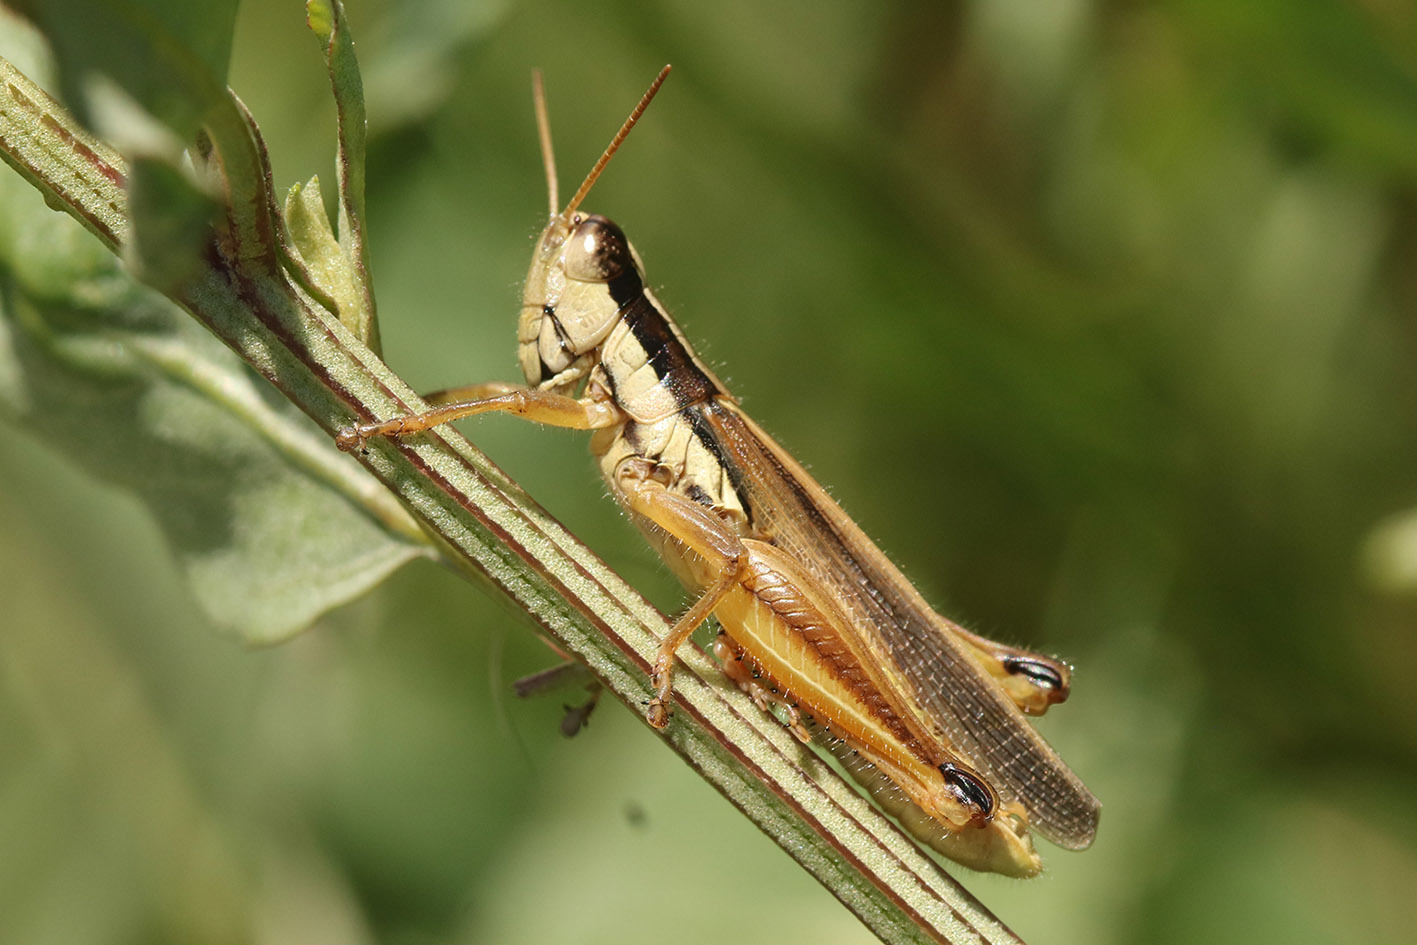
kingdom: Animalia
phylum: Arthropoda
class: Insecta
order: Orthoptera
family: Acrididae
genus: Scotussa
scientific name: Scotussa lemniscata
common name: Slender orange-legged grasshopper
